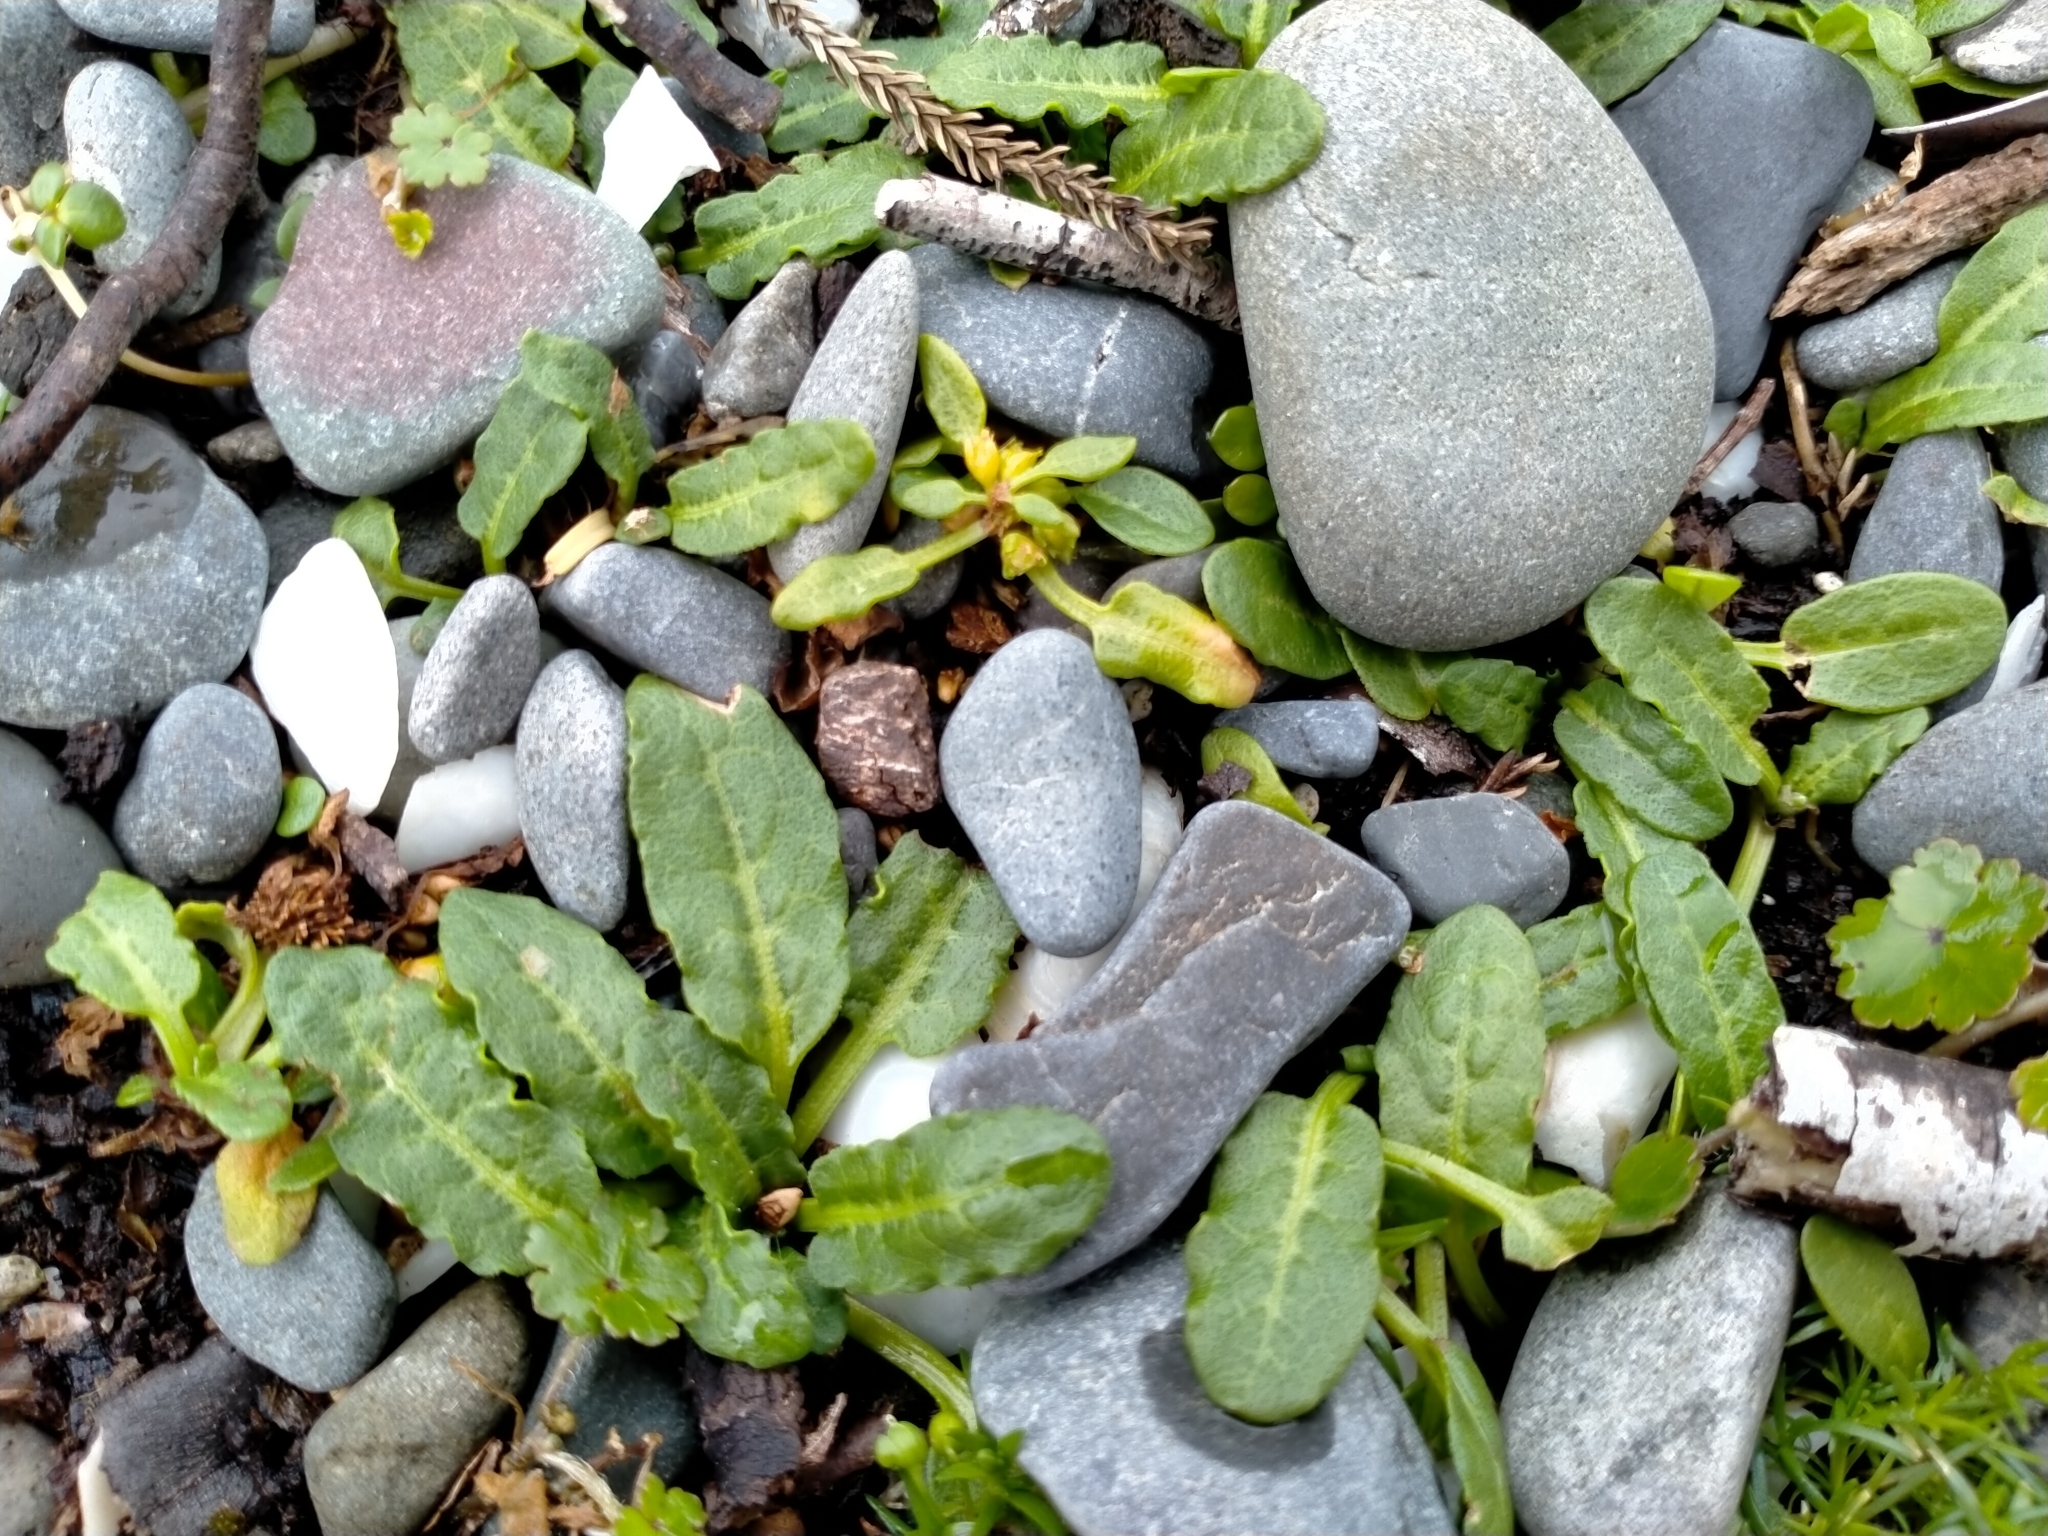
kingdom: Plantae
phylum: Tracheophyta
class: Magnoliopsida
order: Caryophyllales
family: Polygonaceae
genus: Rumex
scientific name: Rumex neglectus
